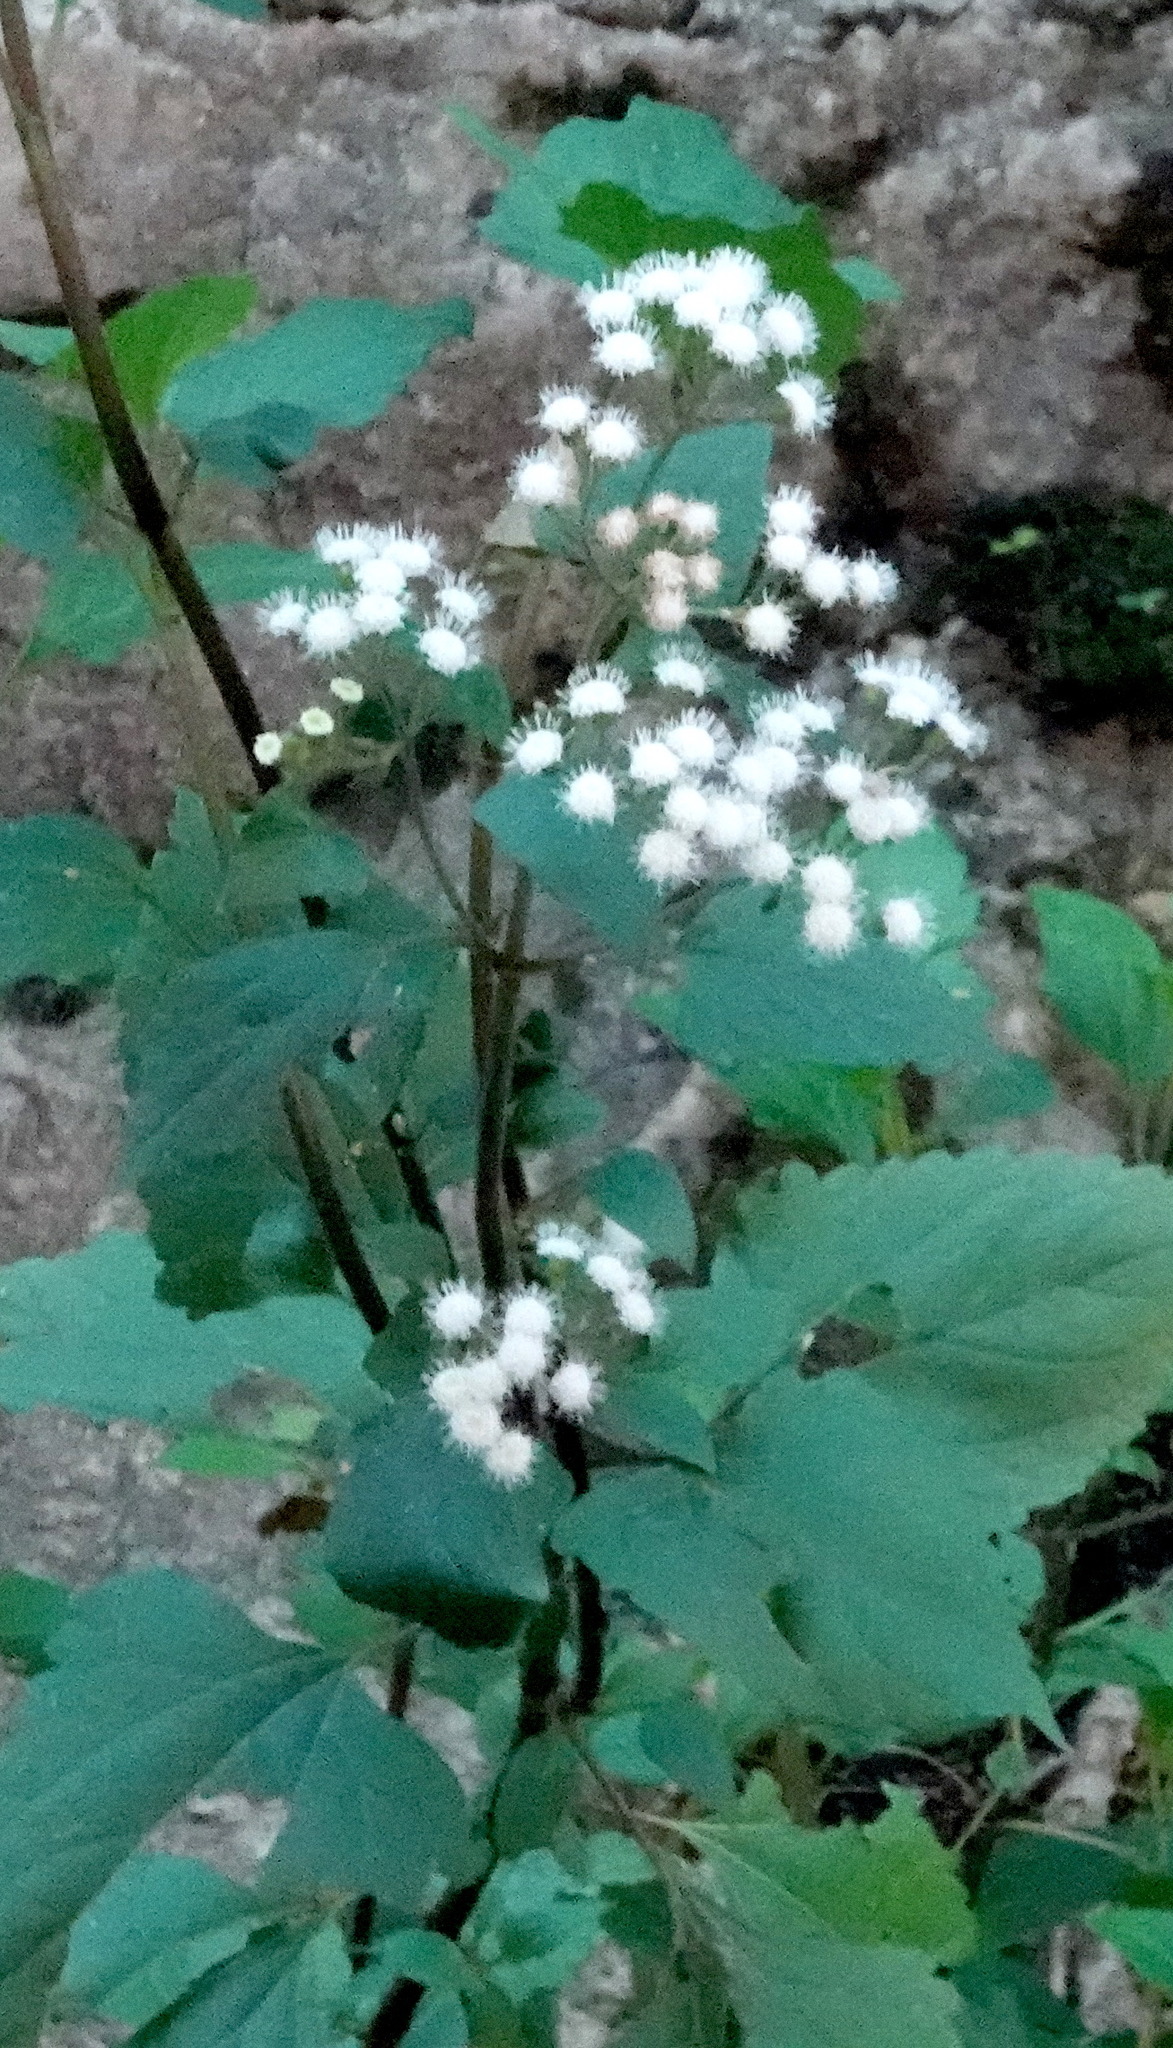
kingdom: Plantae
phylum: Tracheophyta
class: Magnoliopsida
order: Asterales
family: Asteraceae
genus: Ageratina
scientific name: Ageratina adenophora
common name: Sticky snakeroot
